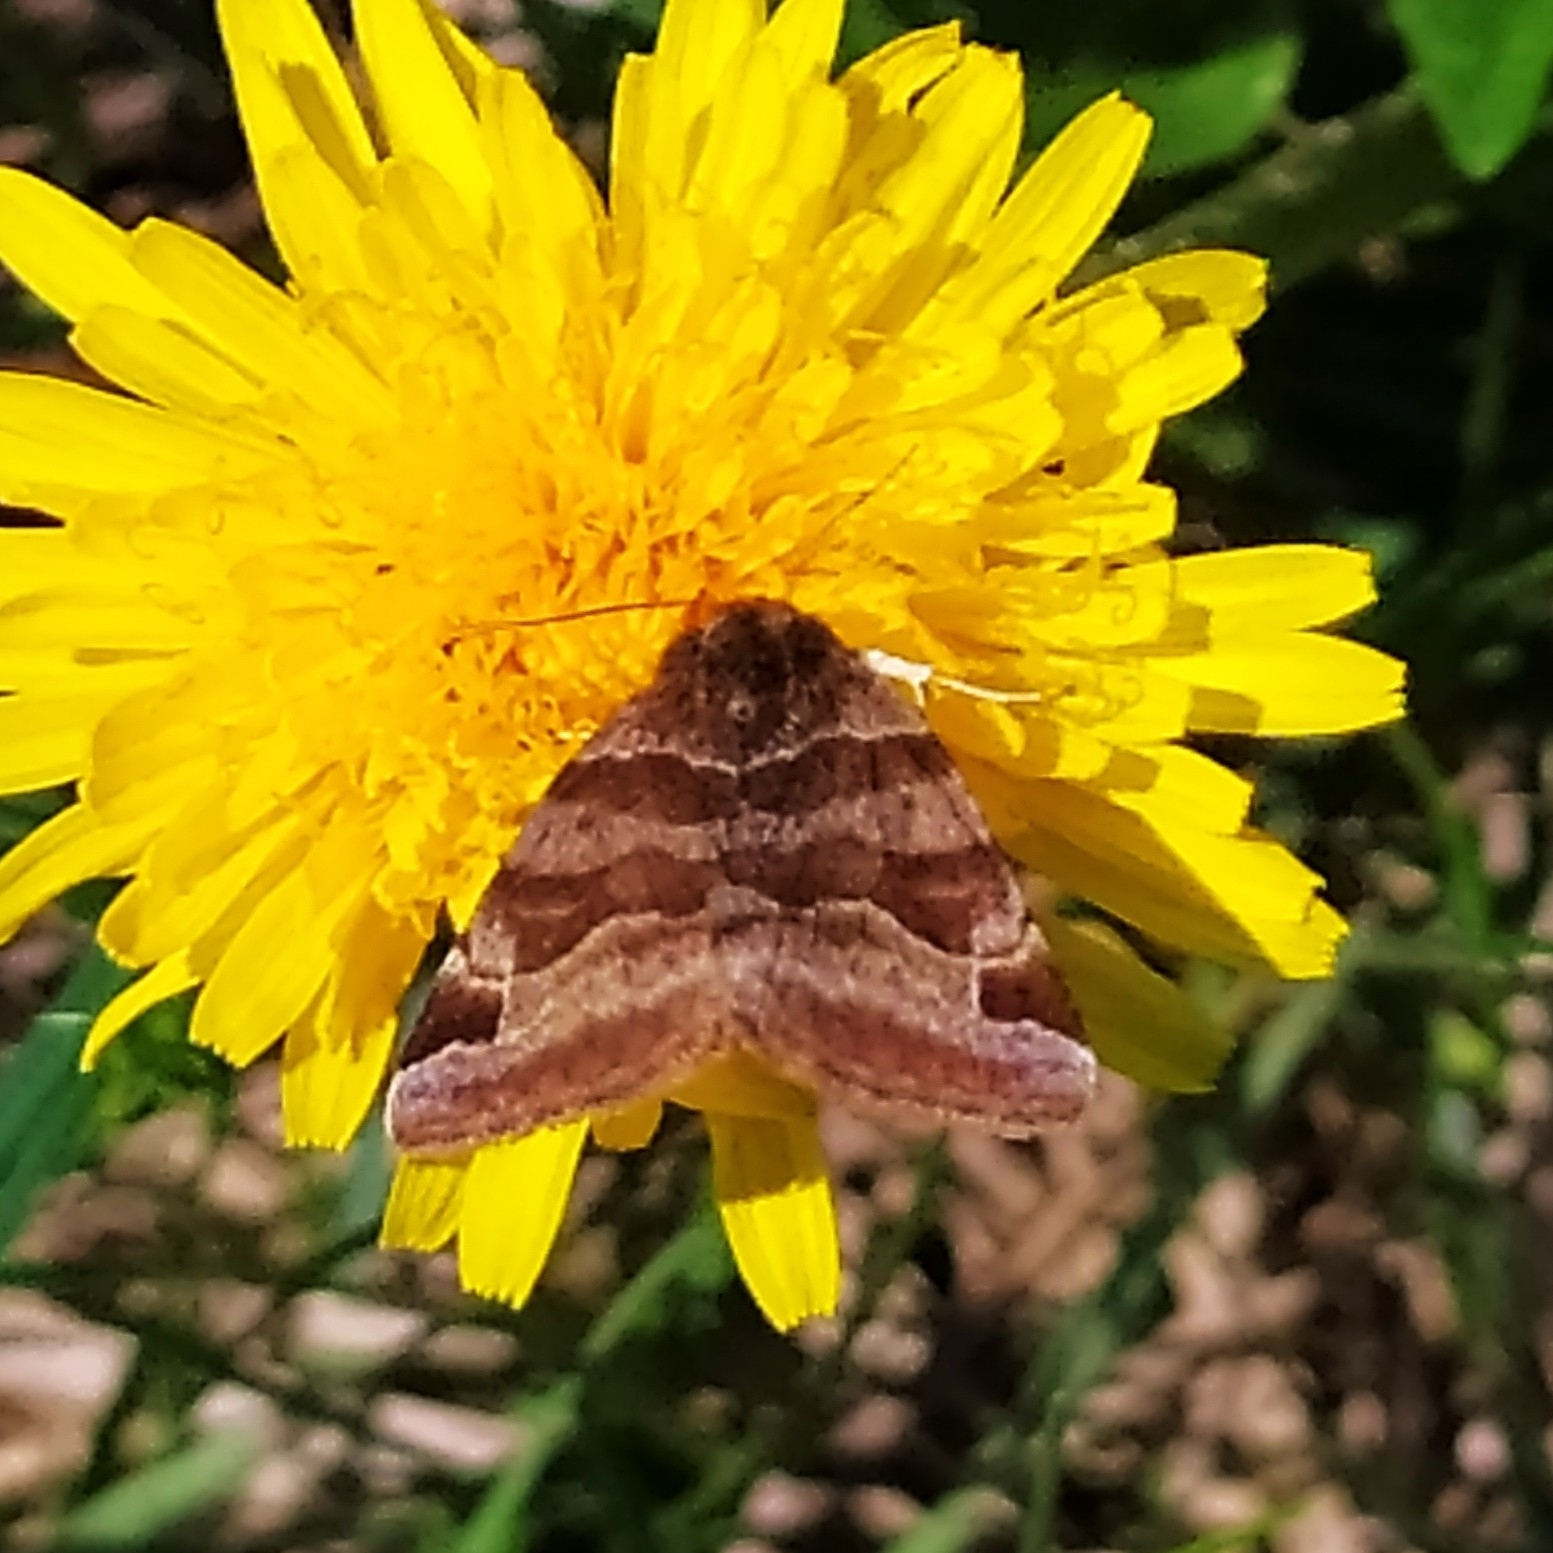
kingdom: Animalia
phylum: Arthropoda
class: Insecta
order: Lepidoptera
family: Erebidae
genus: Euclidia
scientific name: Euclidia glyphica
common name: Burnet companion
